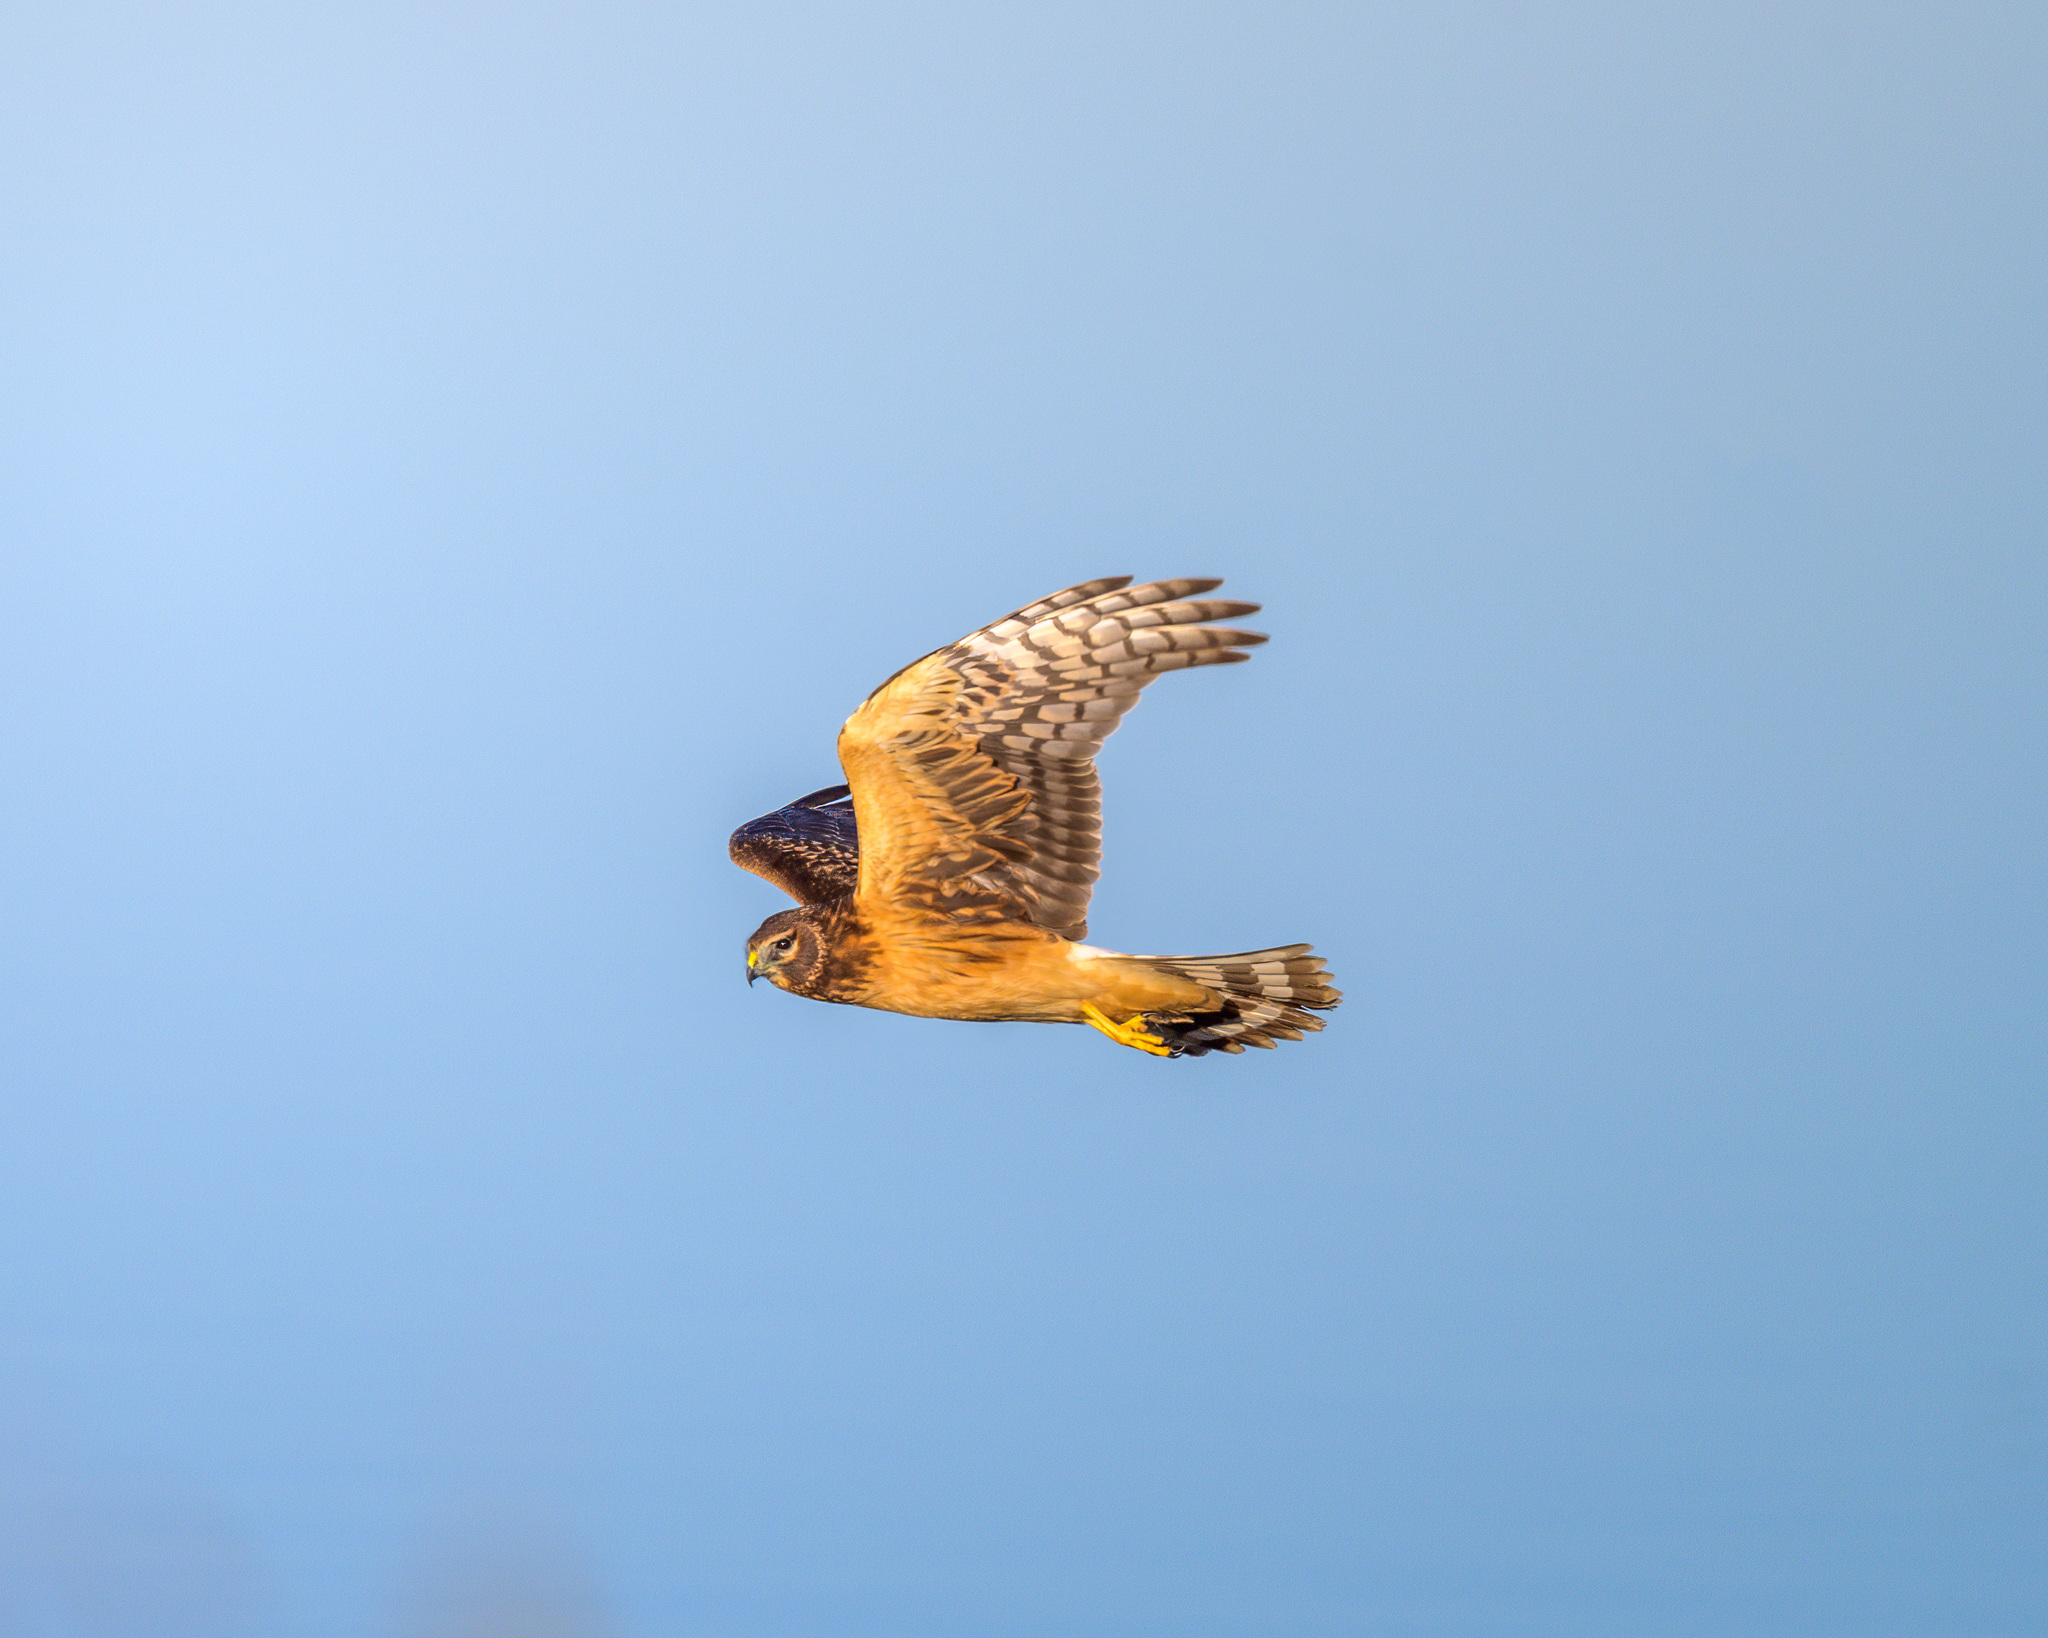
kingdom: Animalia
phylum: Chordata
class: Aves
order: Accipitriformes
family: Accipitridae
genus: Circus
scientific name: Circus cyaneus
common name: Hen harrier
